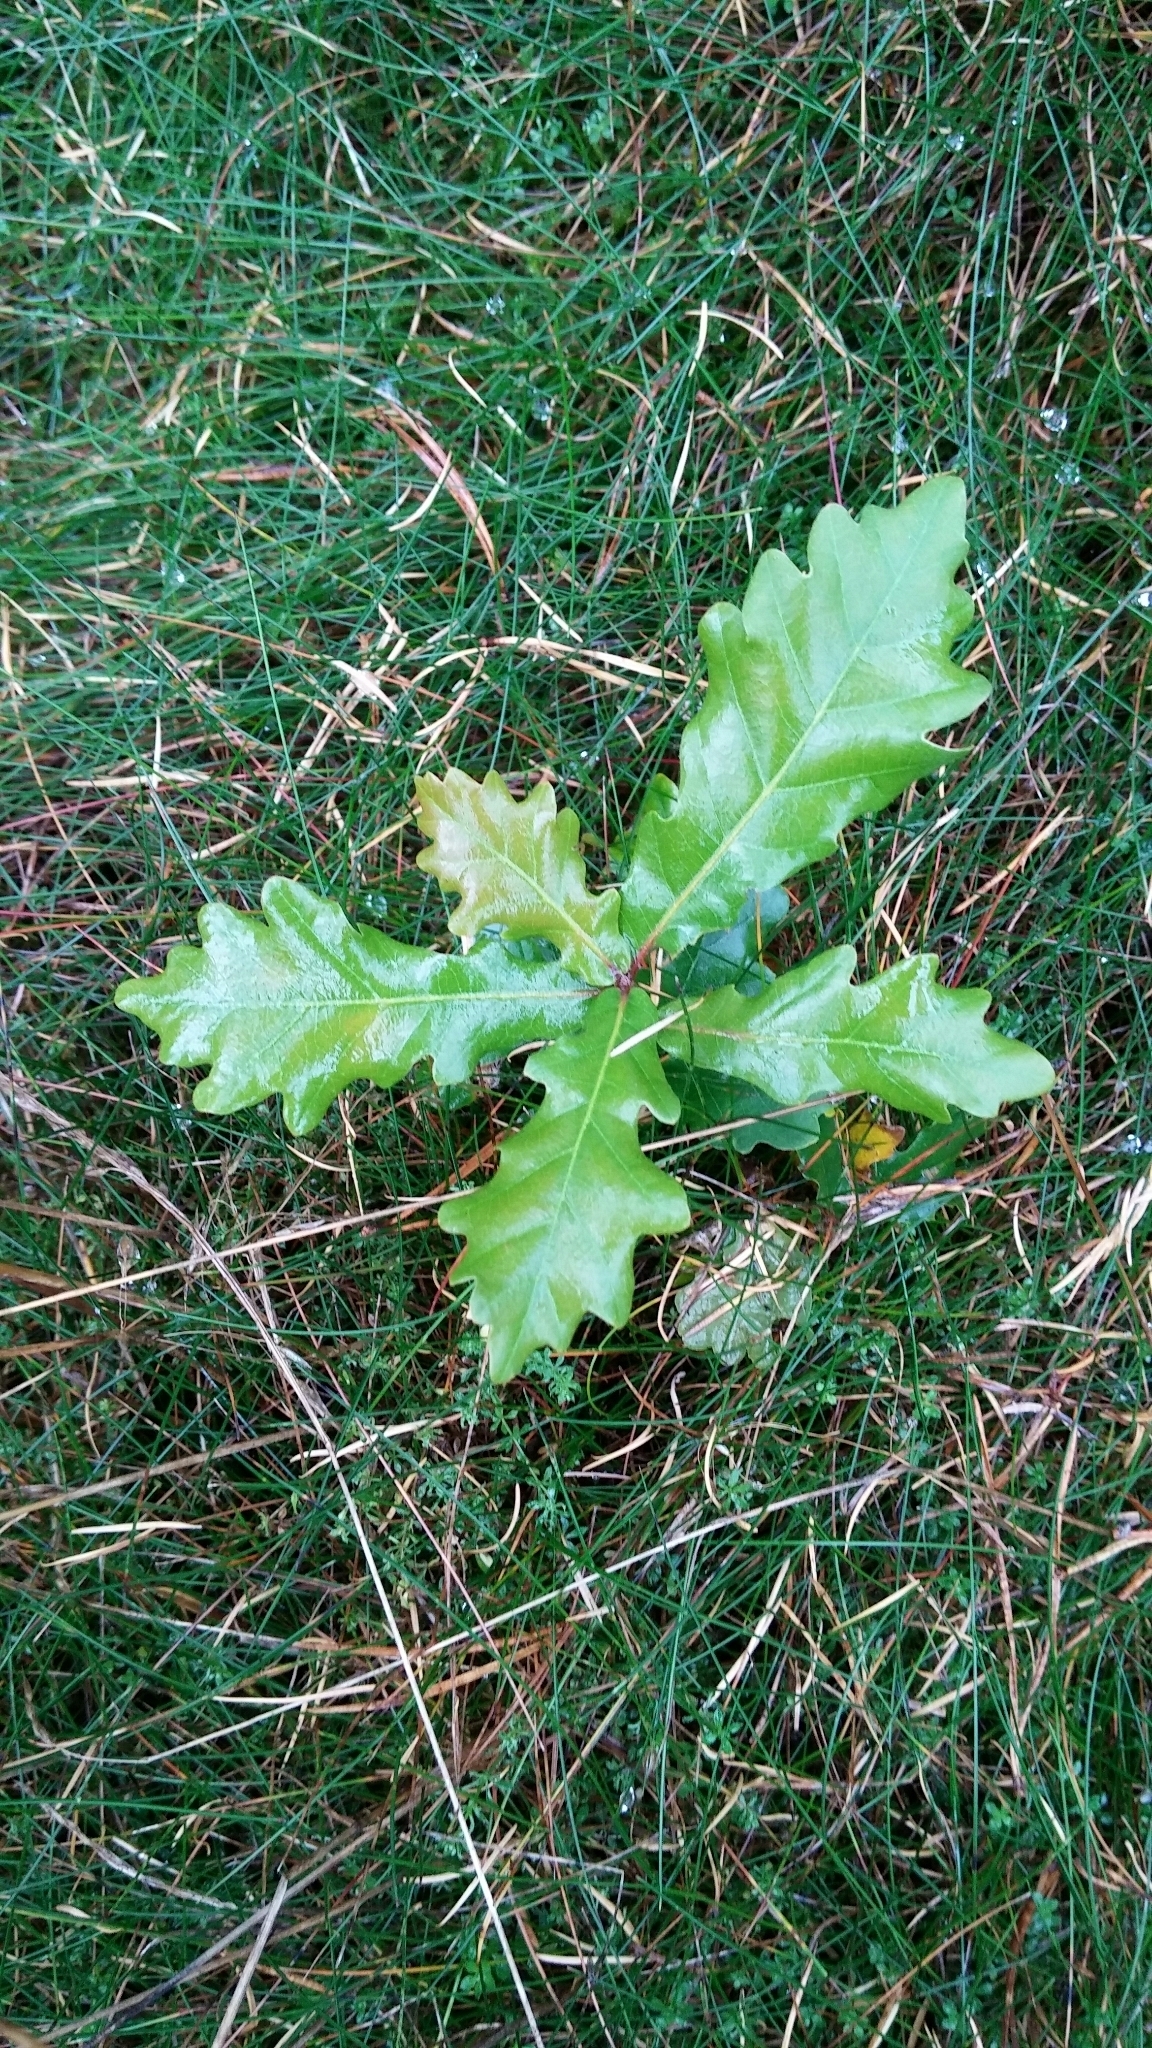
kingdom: Plantae
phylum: Tracheophyta
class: Magnoliopsida
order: Fagales
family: Fagaceae
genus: Quercus
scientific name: Quercus robur
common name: Pedunculate oak
